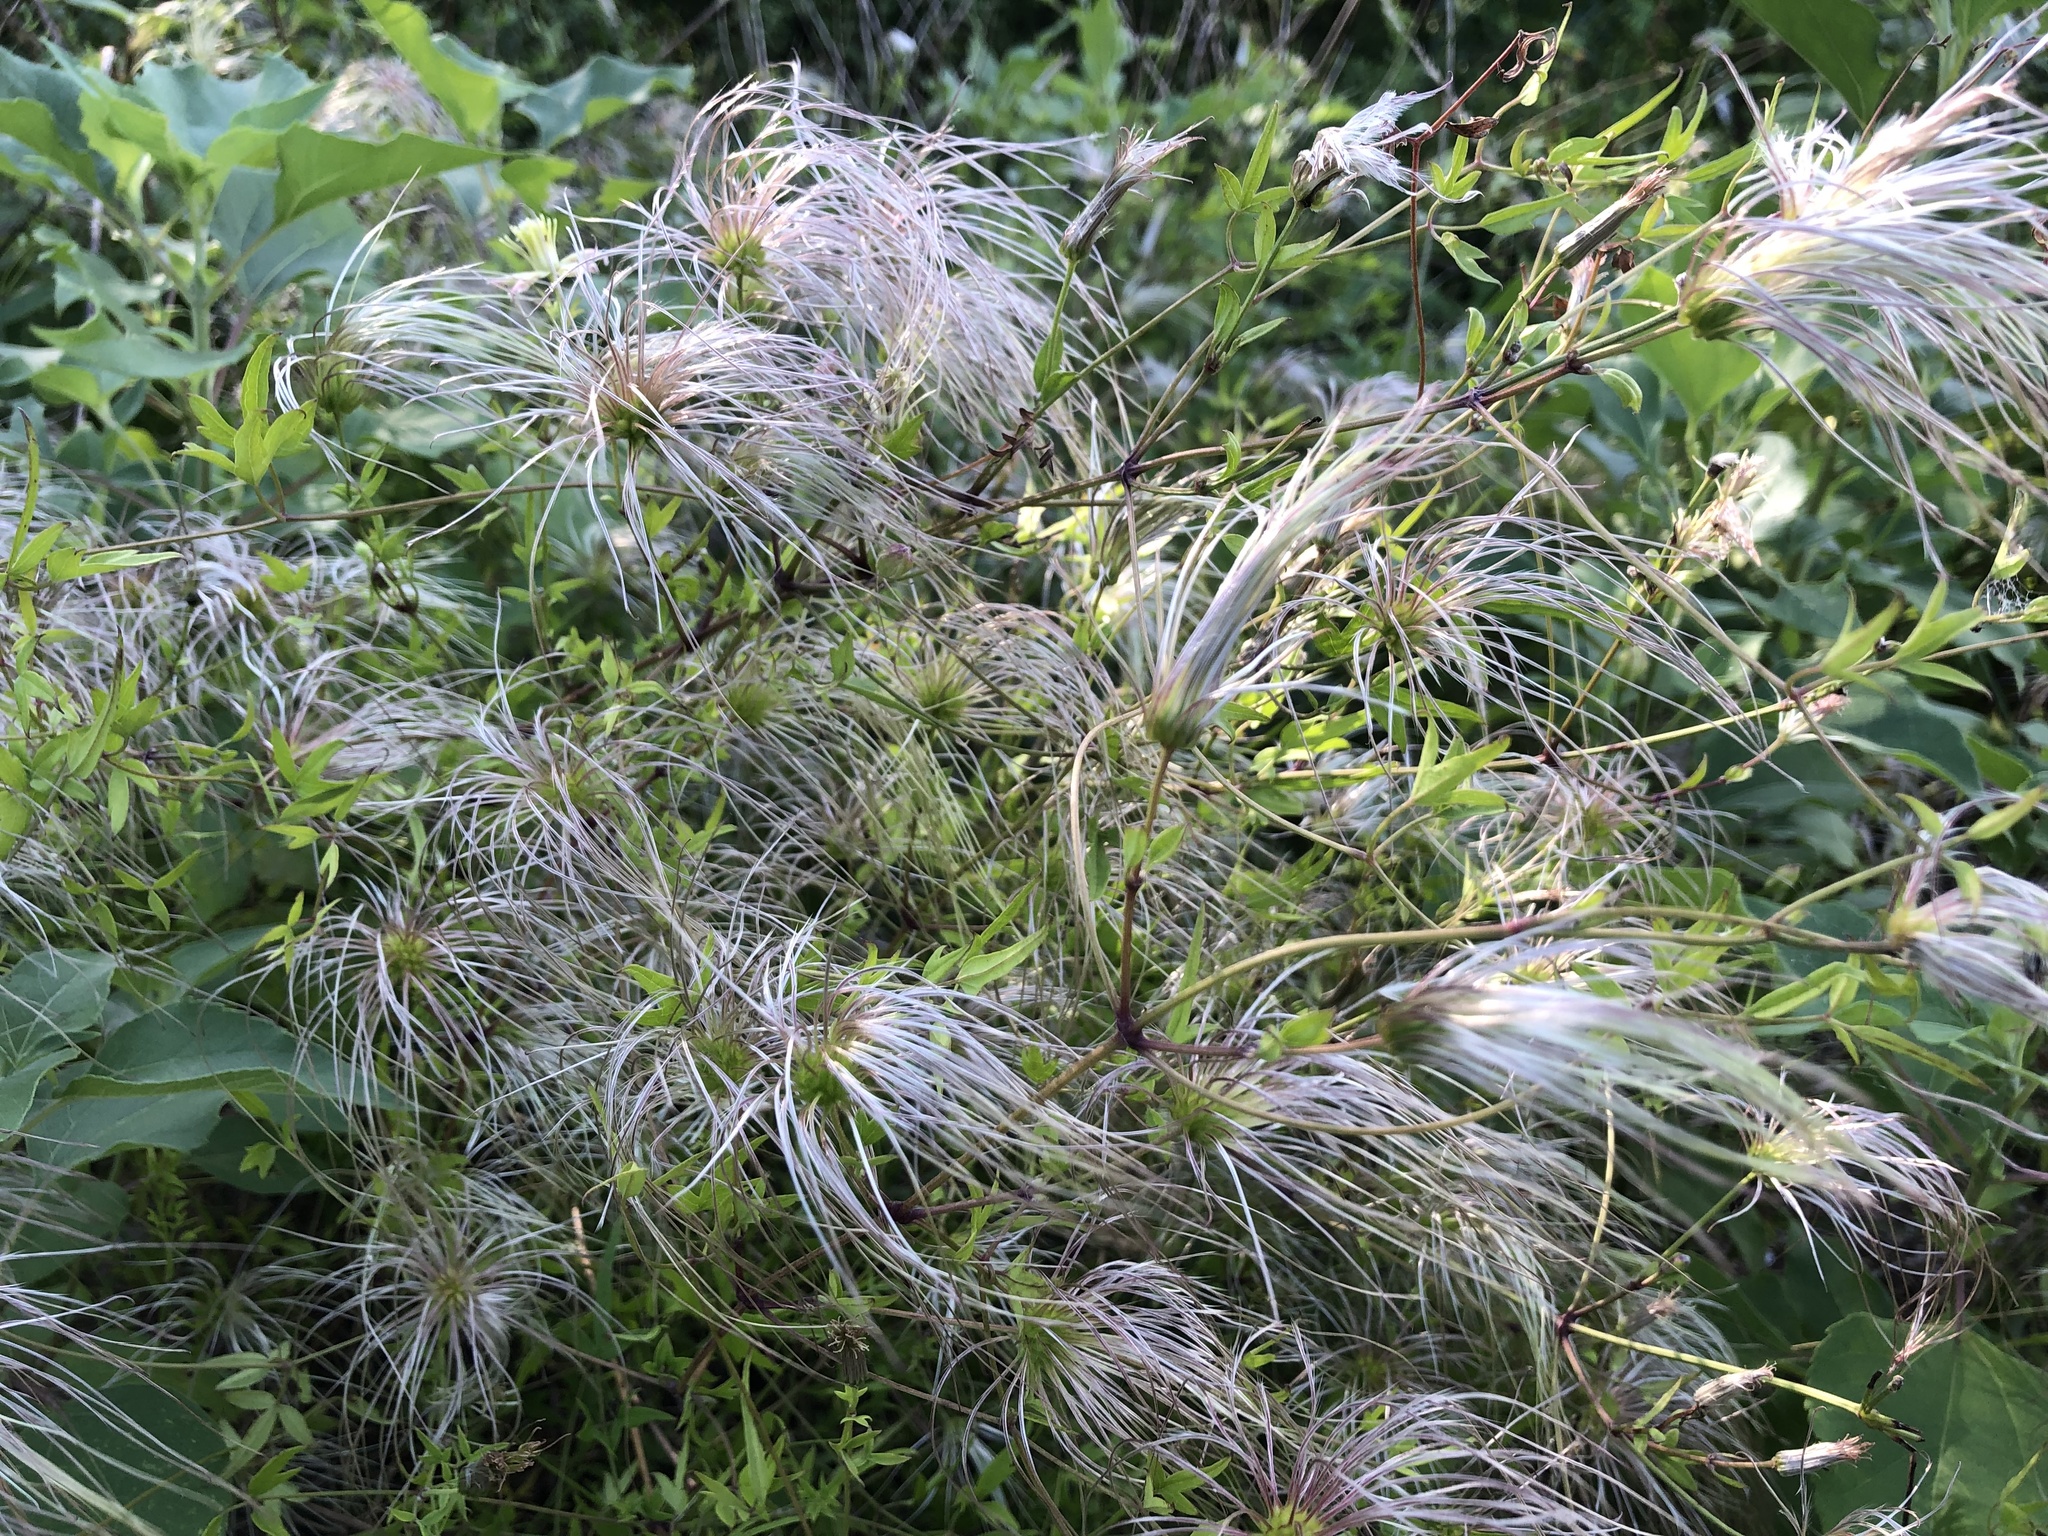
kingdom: Plantae
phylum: Tracheophyta
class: Magnoliopsida
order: Ranunculales
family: Ranunculaceae
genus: Clematis
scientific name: Clematis drummondii
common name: Texas virgin's bower
